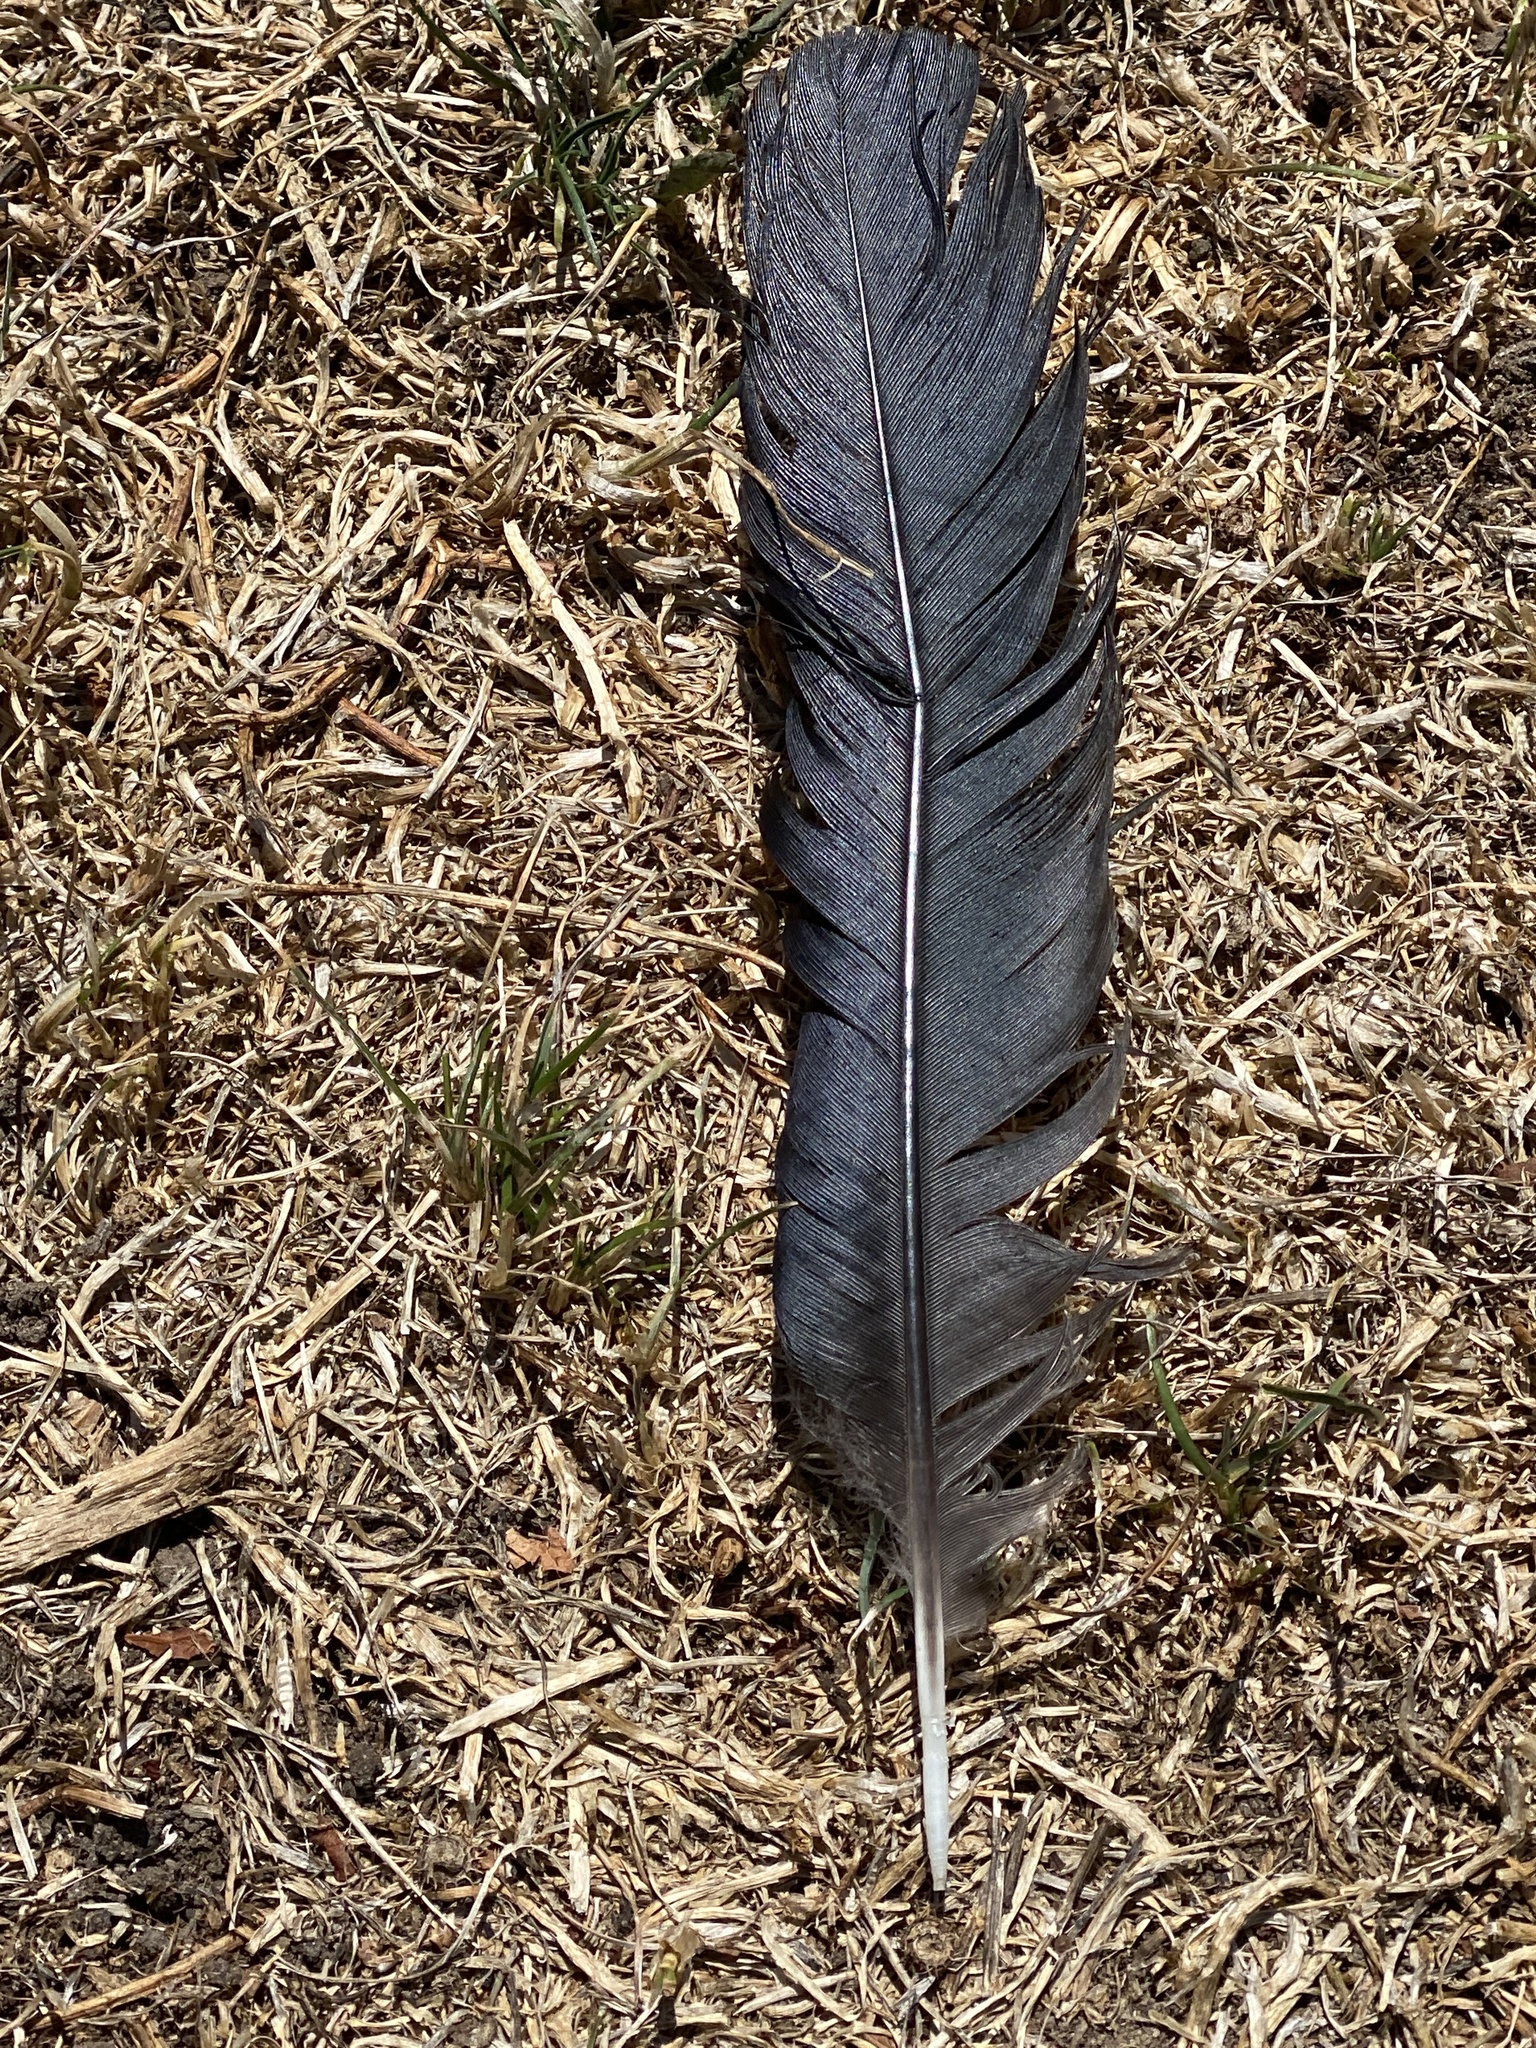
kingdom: Animalia
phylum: Chordata
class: Aves
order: Passeriformes
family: Corvidae
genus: Corvus
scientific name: Corvus brachyrhynchos
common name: American crow
